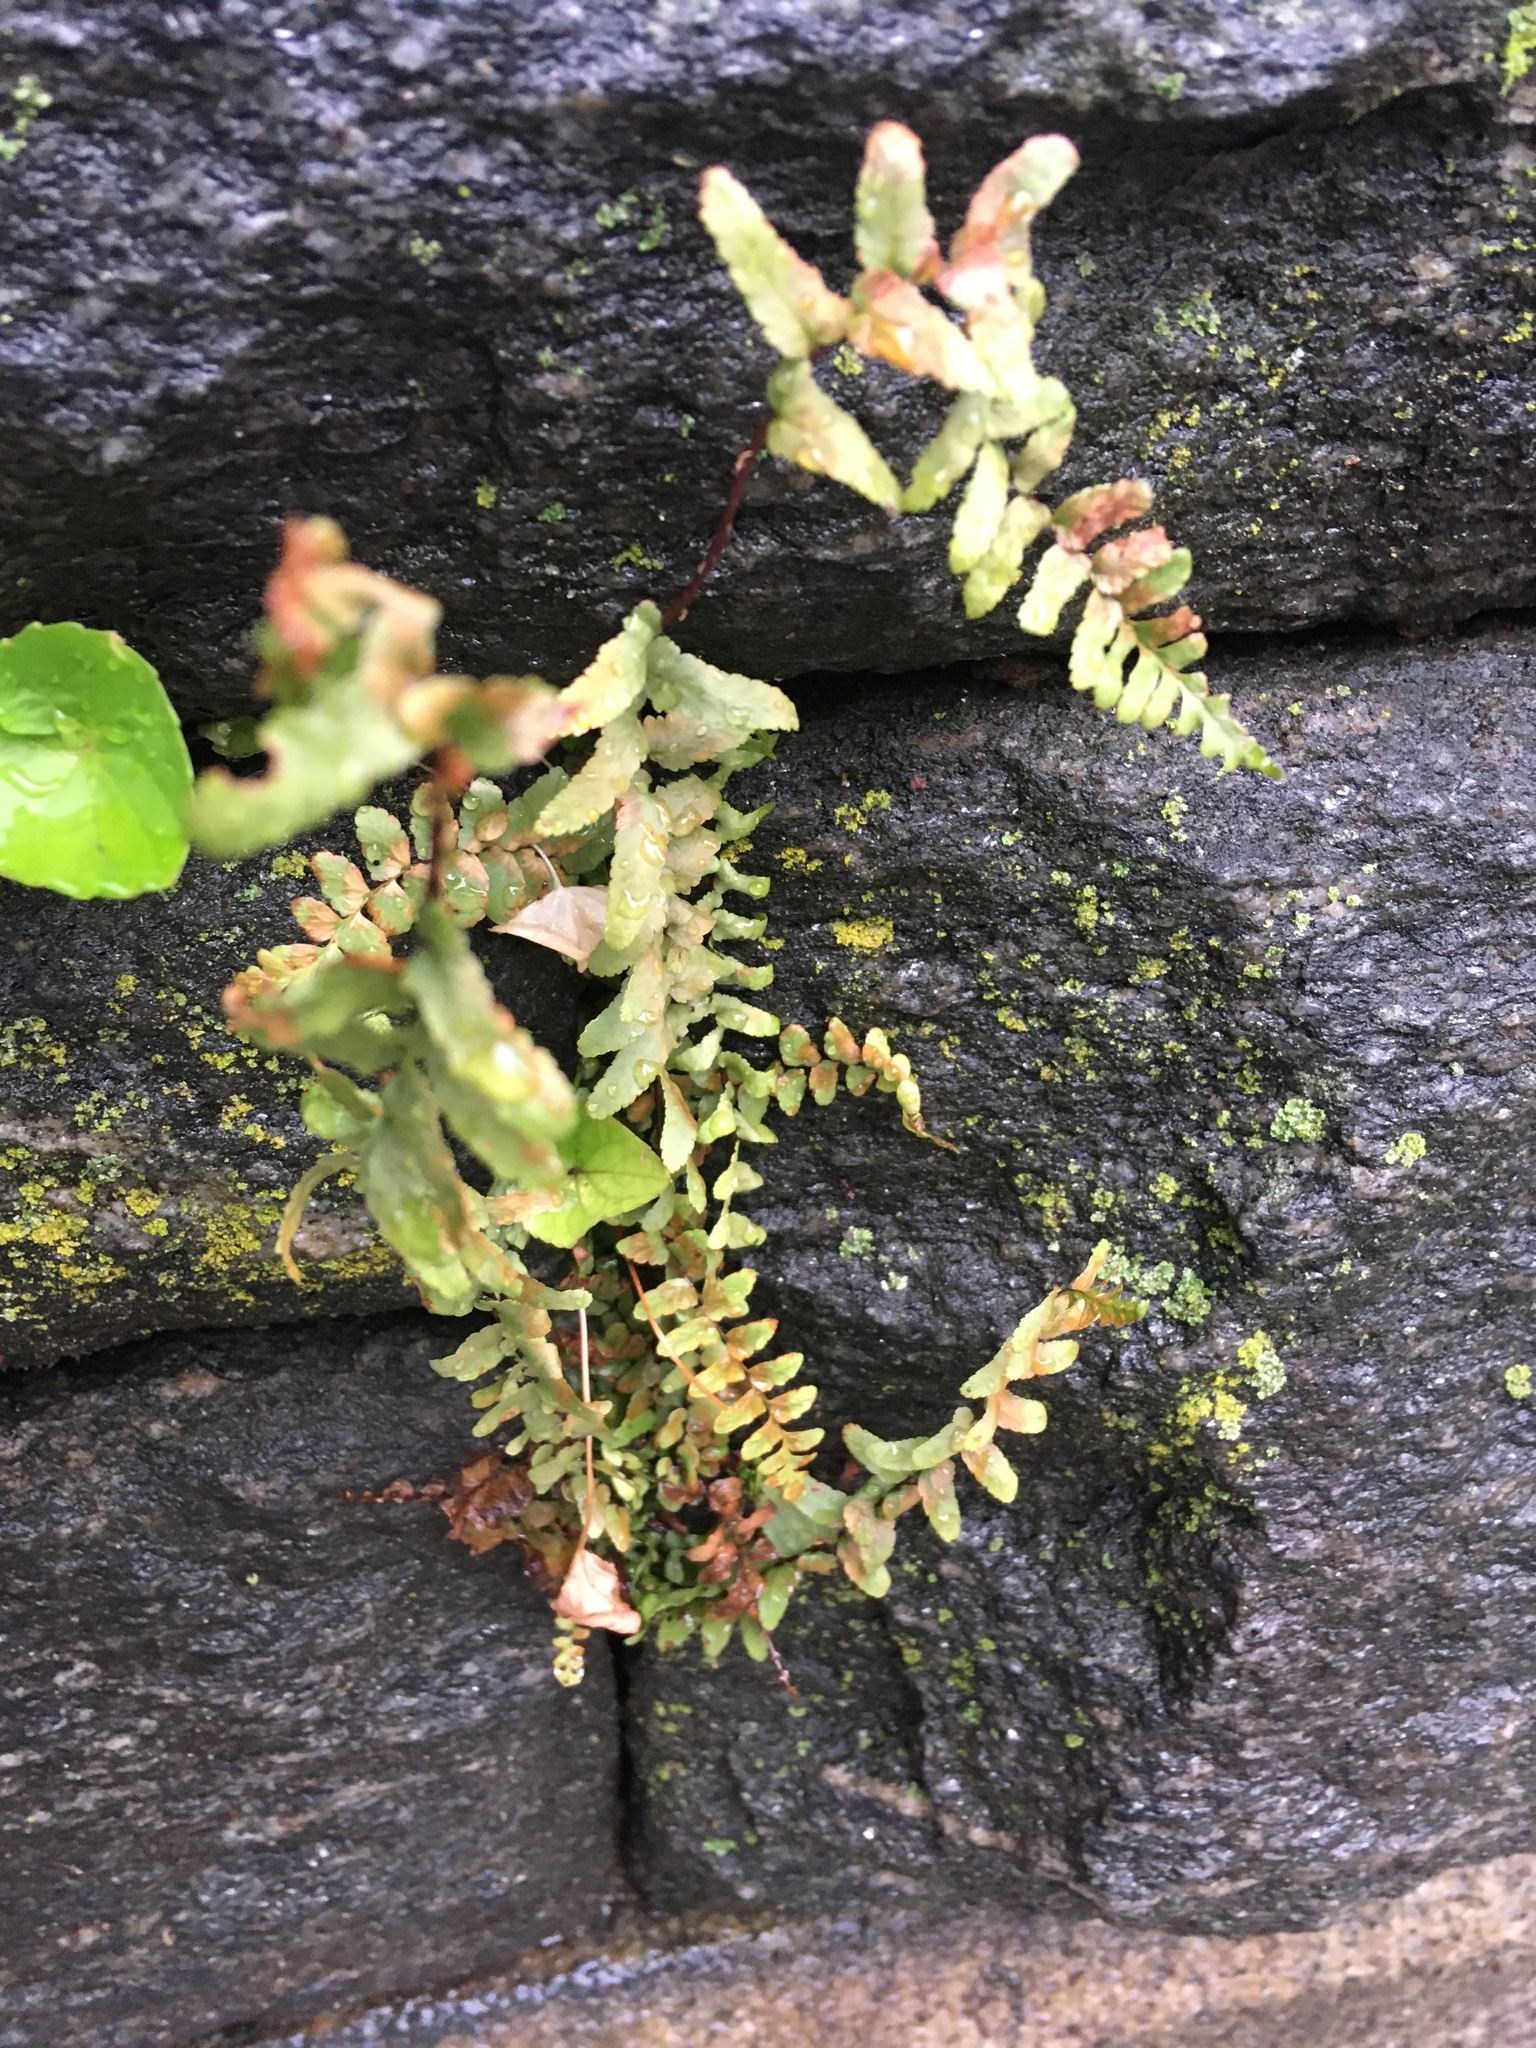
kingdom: Plantae
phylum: Tracheophyta
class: Polypodiopsida
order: Polypodiales
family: Aspleniaceae
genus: Asplenium
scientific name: Asplenium platyneuron
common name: Ebony spleenwort
